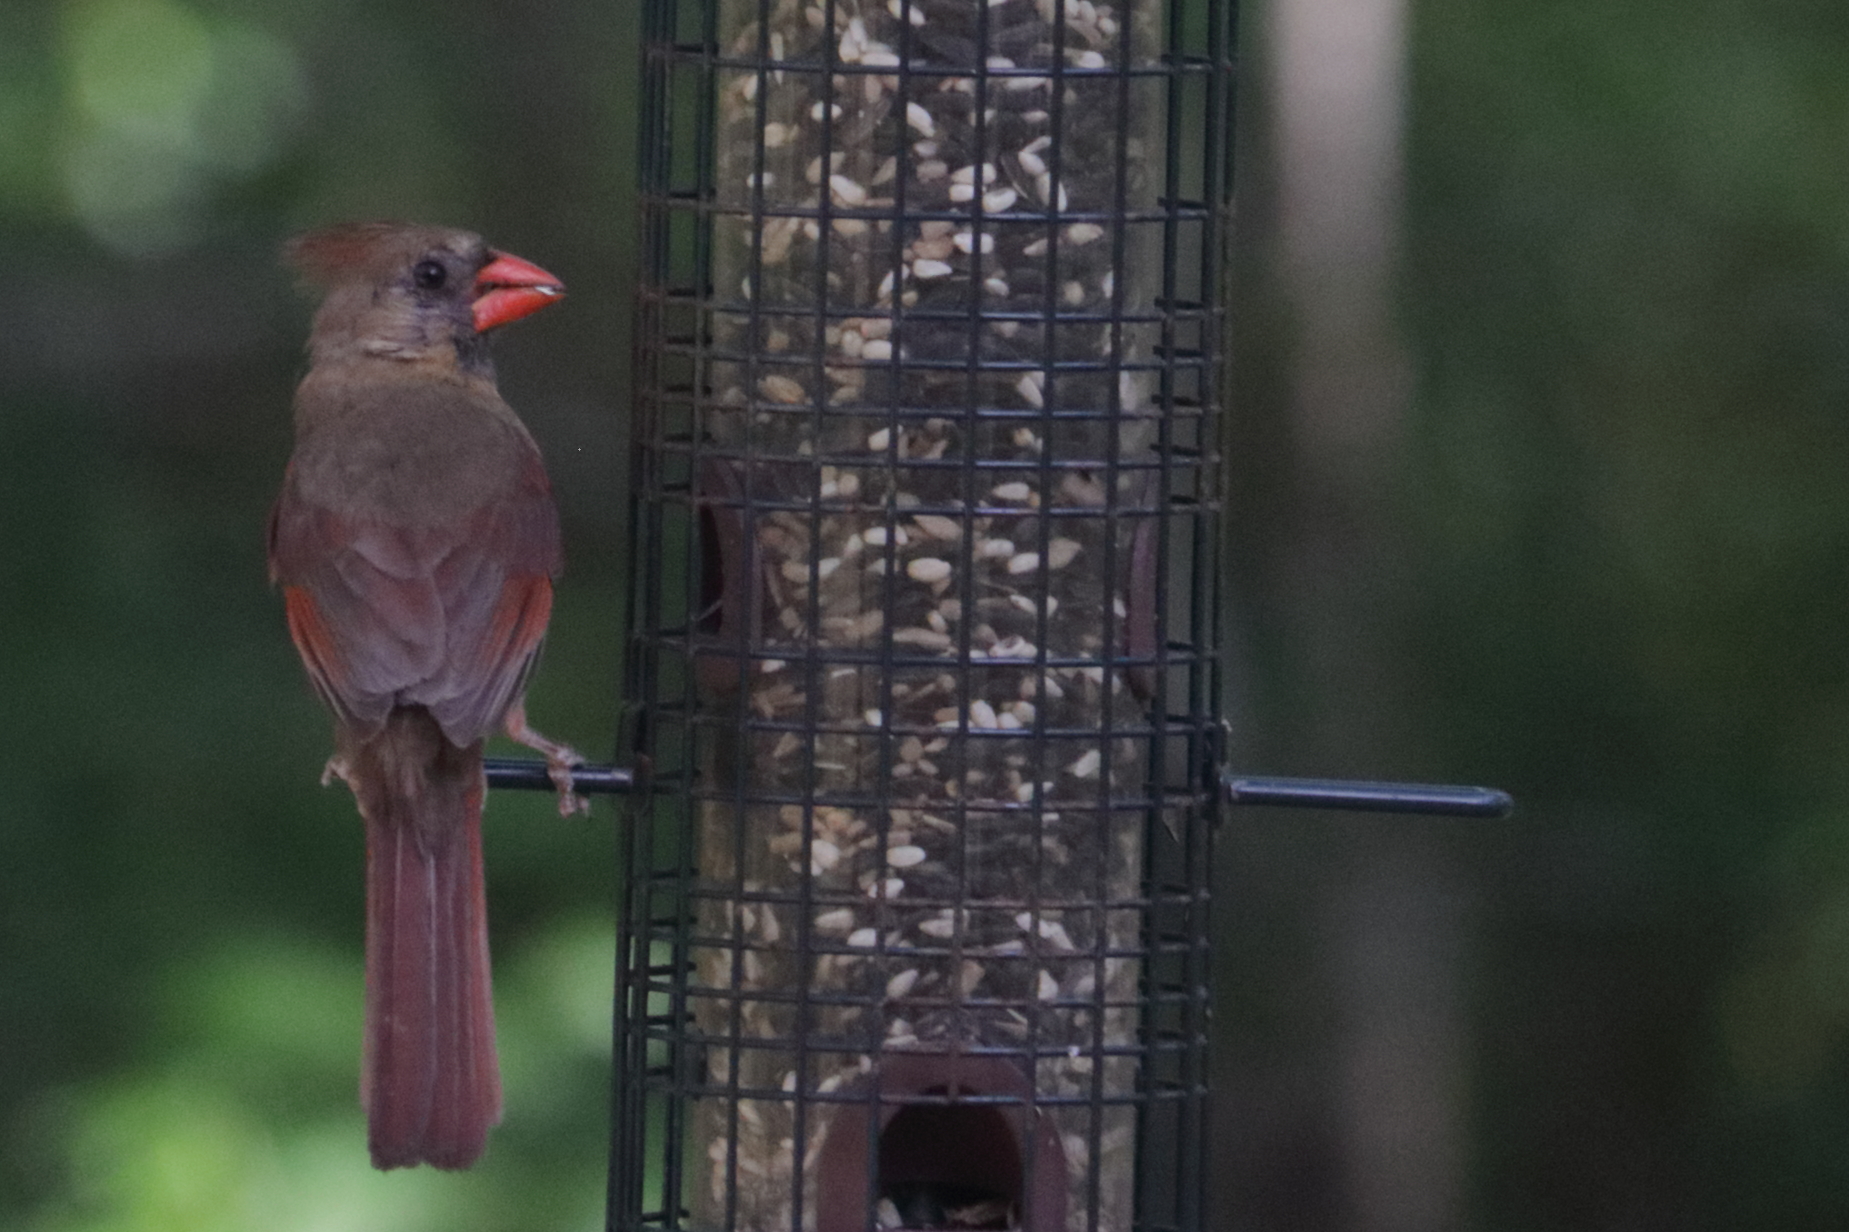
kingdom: Animalia
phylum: Chordata
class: Aves
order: Passeriformes
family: Cardinalidae
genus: Cardinalis
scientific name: Cardinalis cardinalis
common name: Northern cardinal
